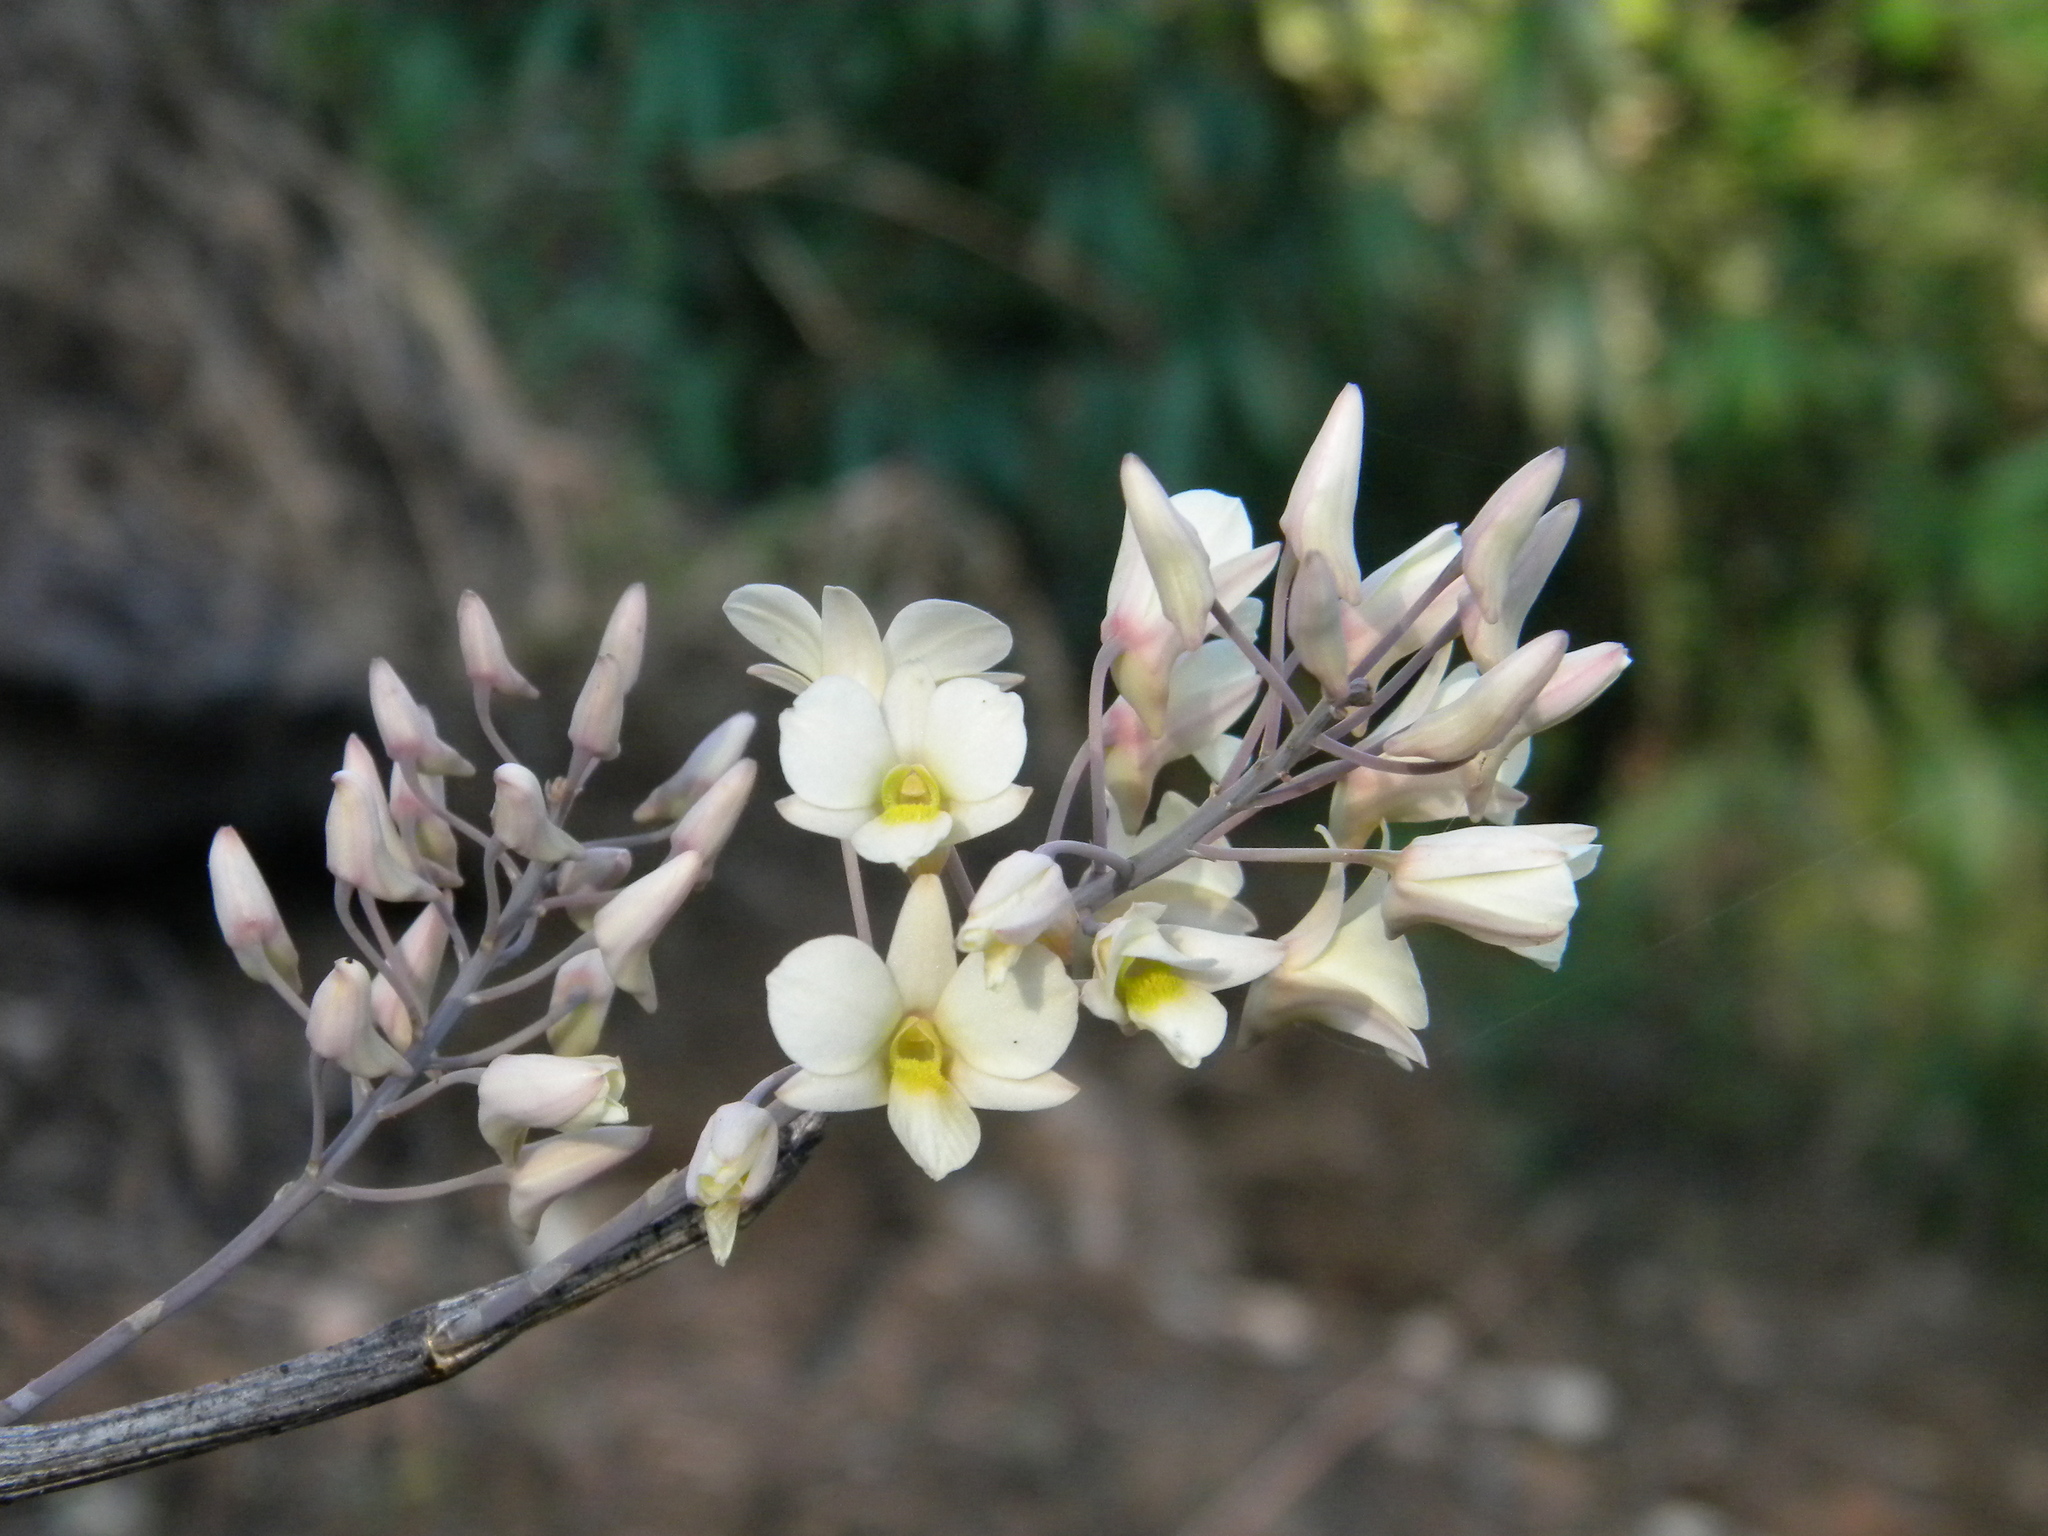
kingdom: Plantae
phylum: Tracheophyta
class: Liliopsida
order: Asparagales
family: Orchidaceae
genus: Dendrobium
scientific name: Dendrobium ovatum
